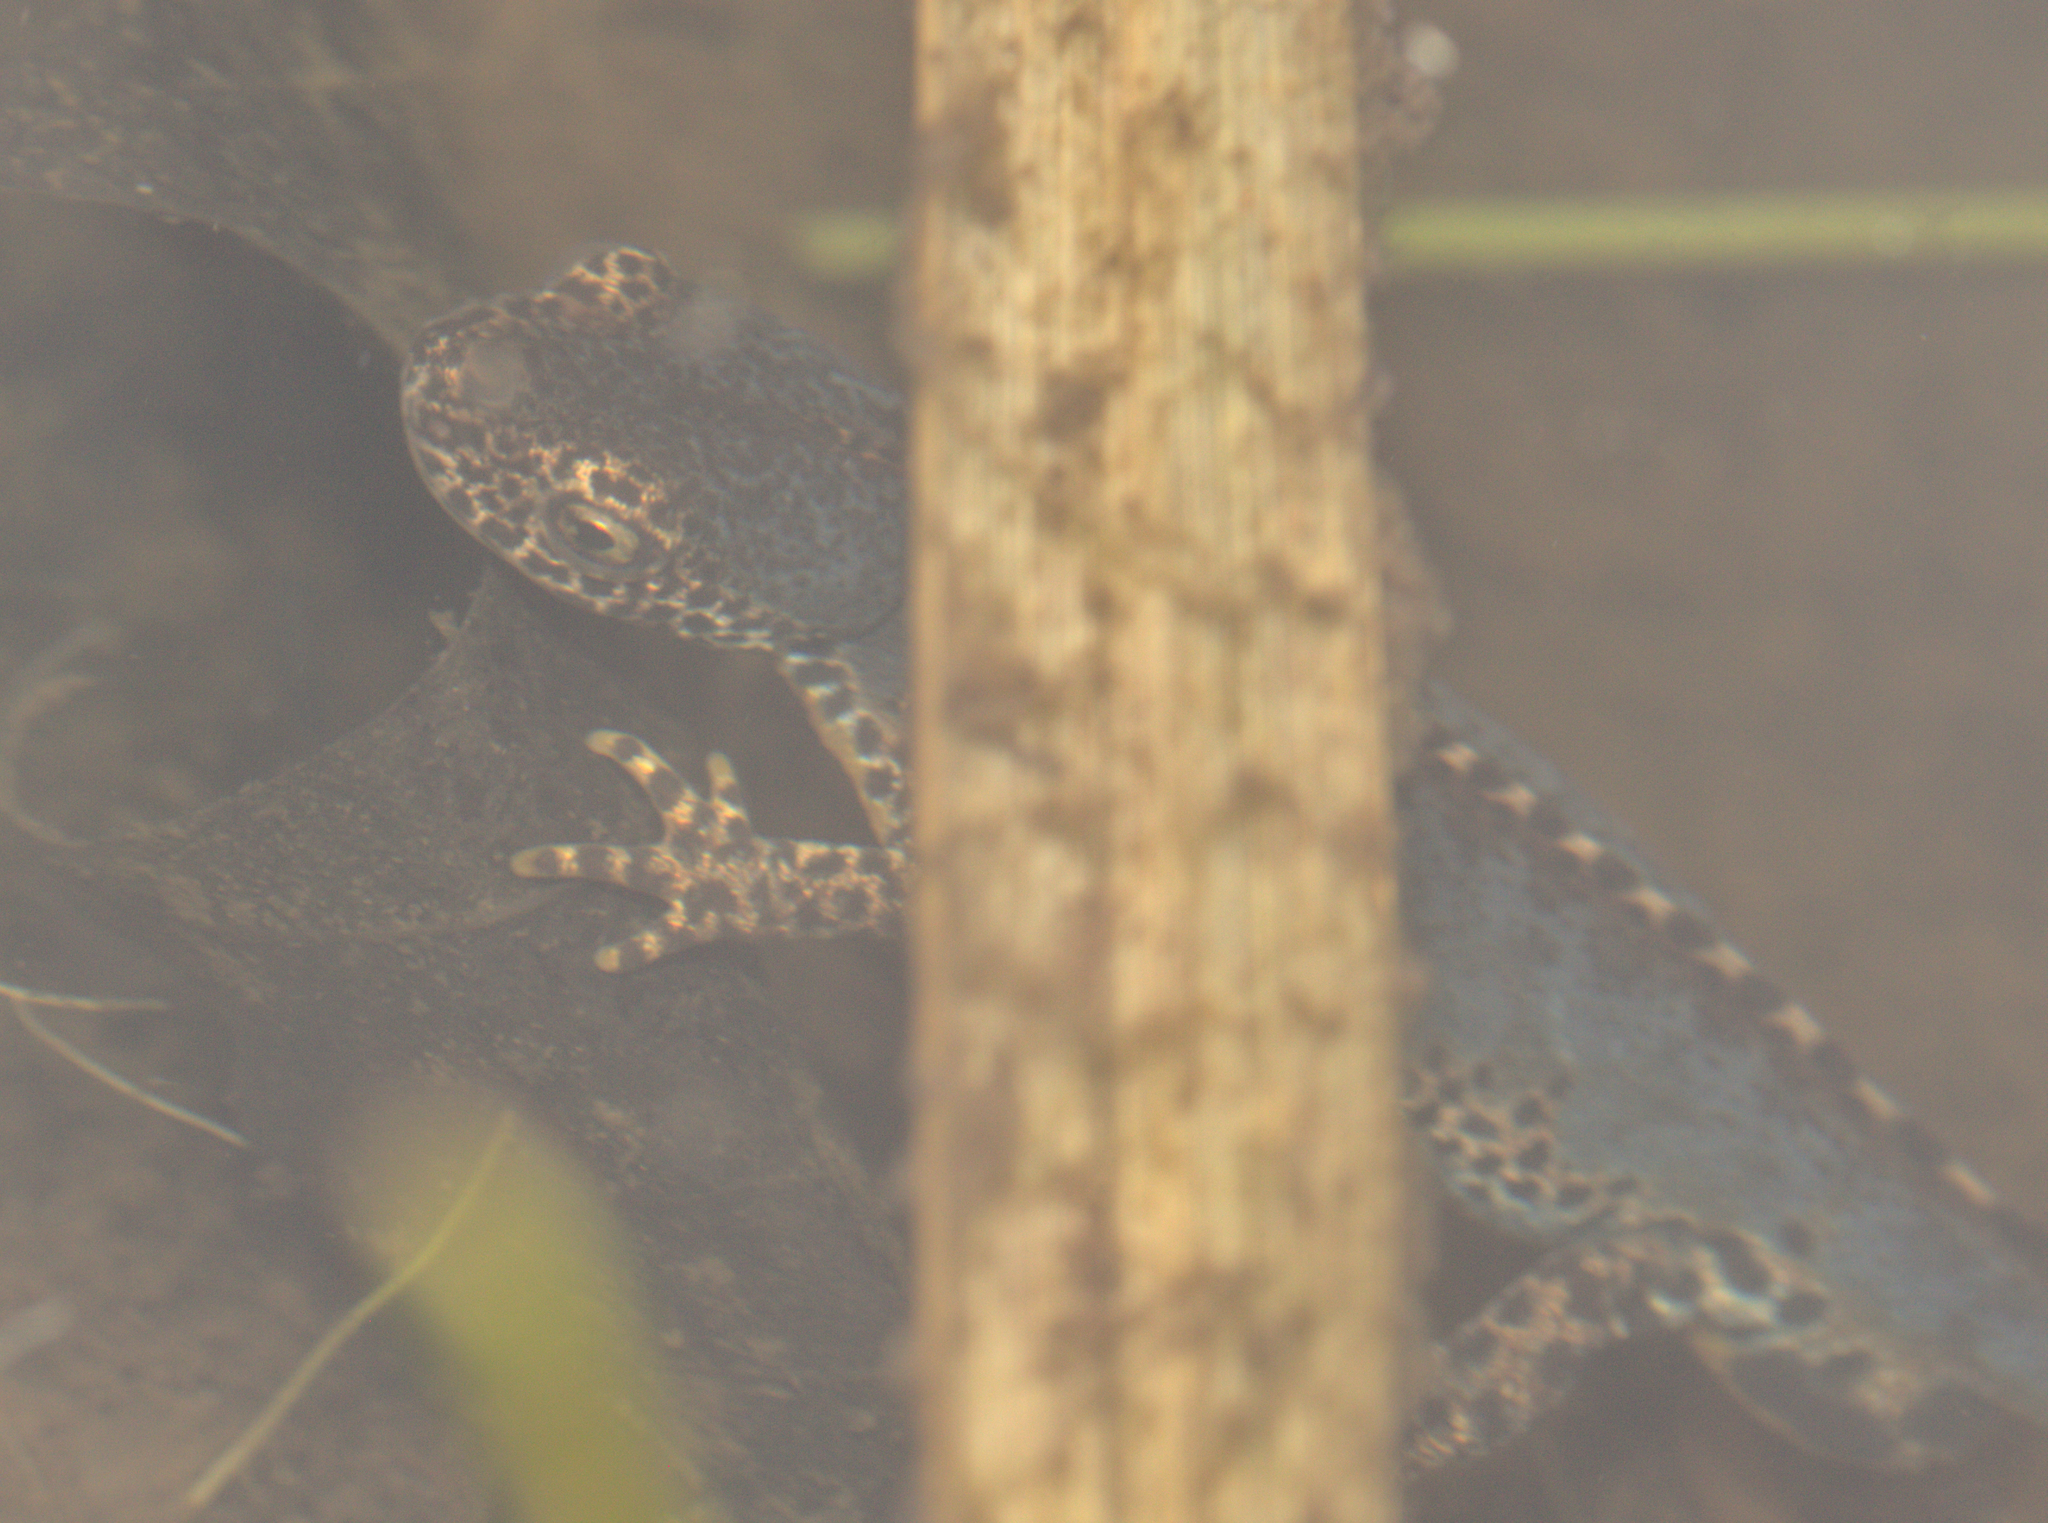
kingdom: Animalia
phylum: Chordata
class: Amphibia
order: Caudata
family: Salamandridae
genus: Ichthyosaura
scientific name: Ichthyosaura alpestris
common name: Alpine newt
